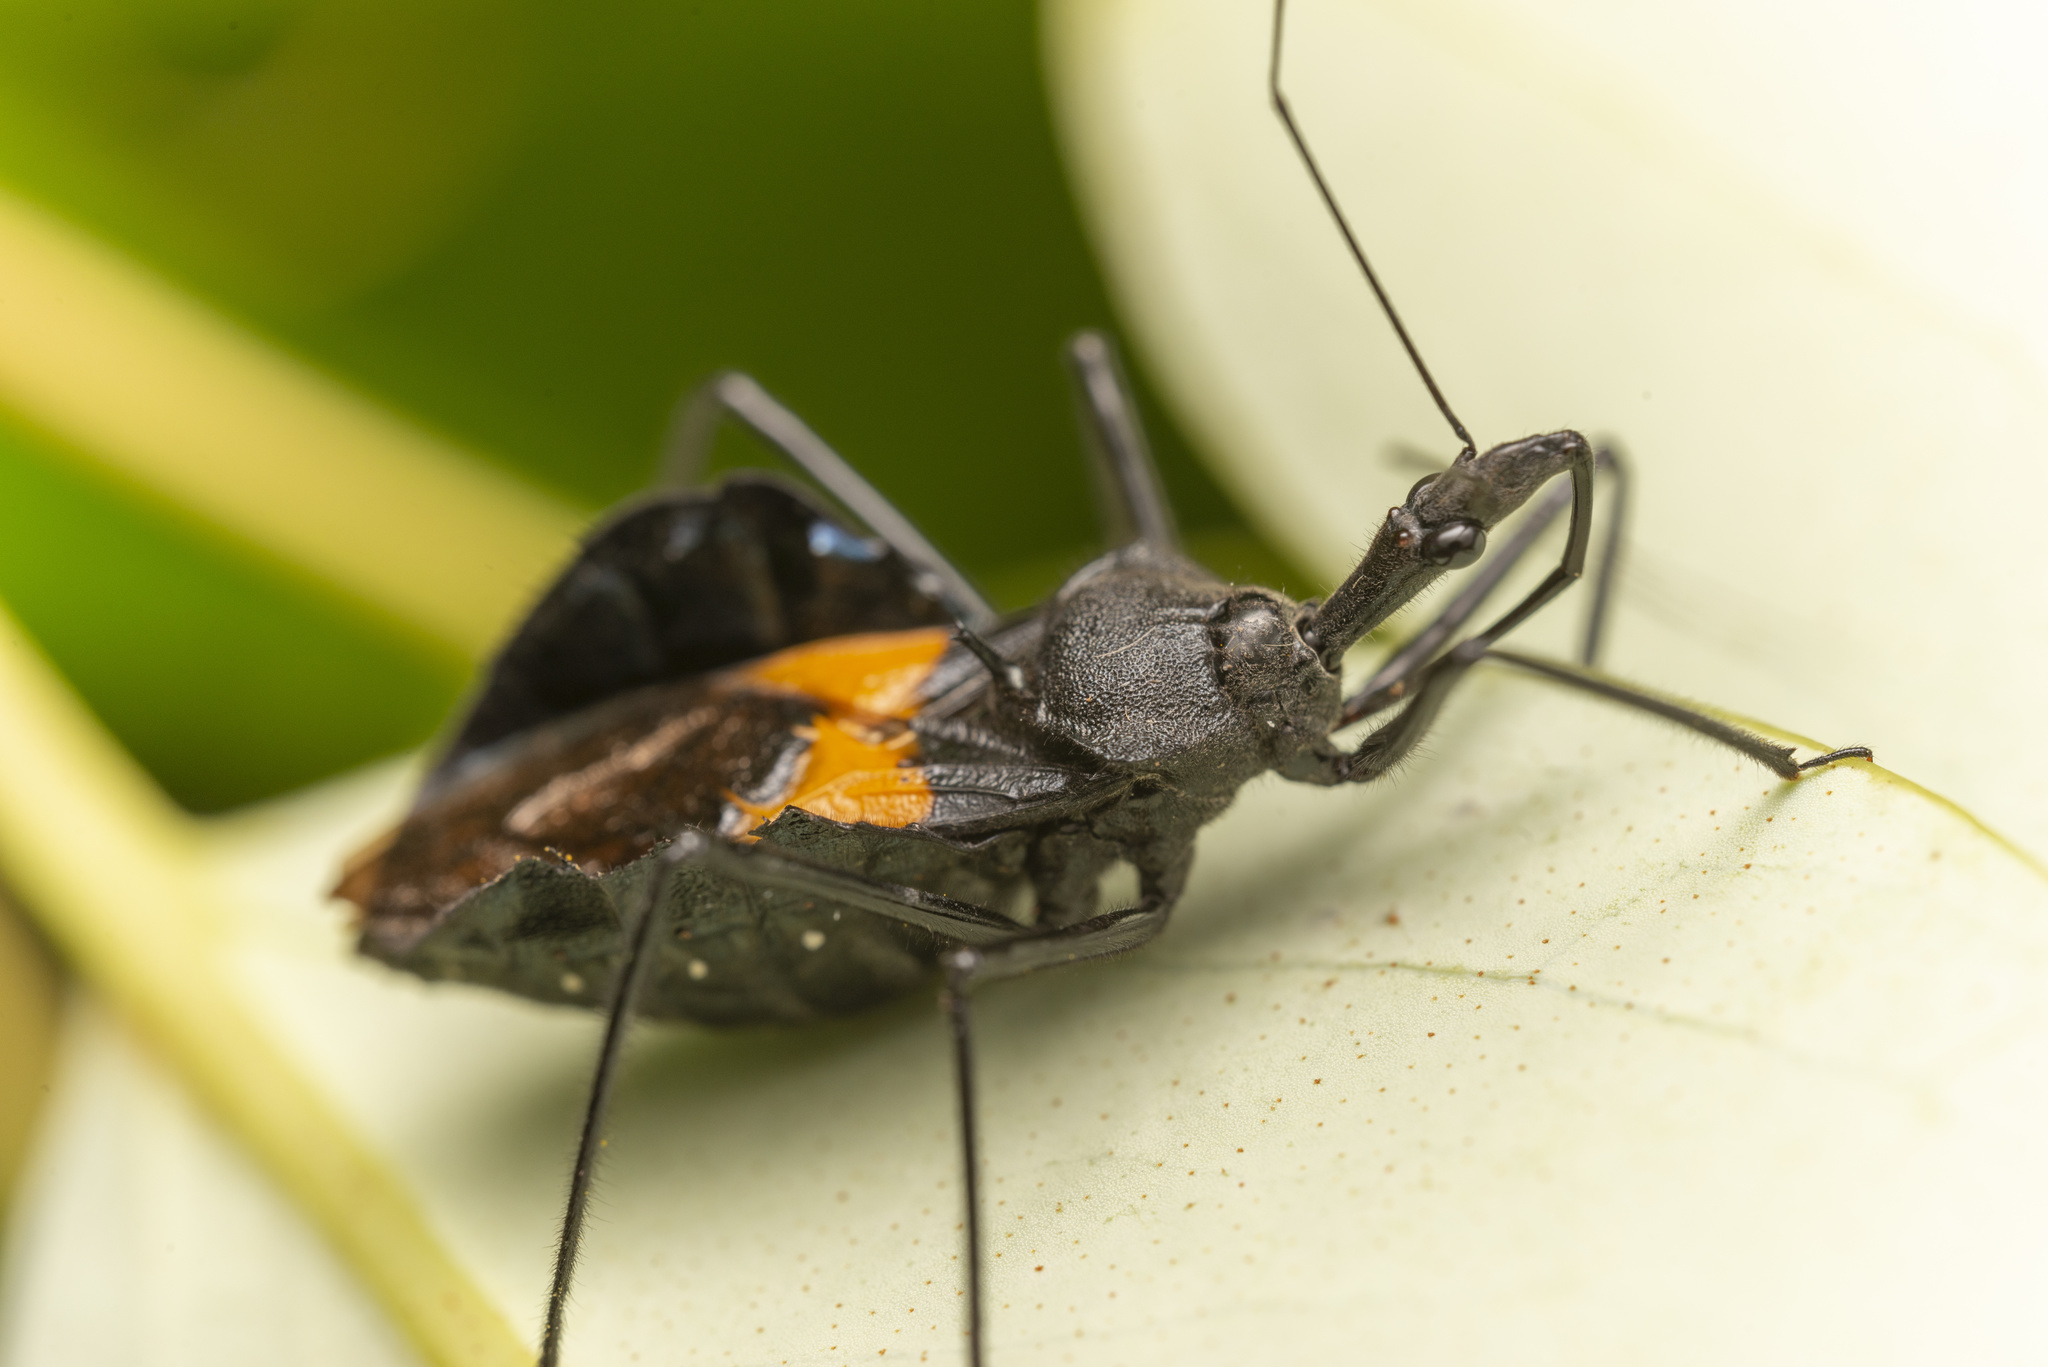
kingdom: Animalia
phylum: Arthropoda
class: Insecta
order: Hemiptera
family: Reduviidae
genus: Sycanus
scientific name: Sycanus croceovittatus
